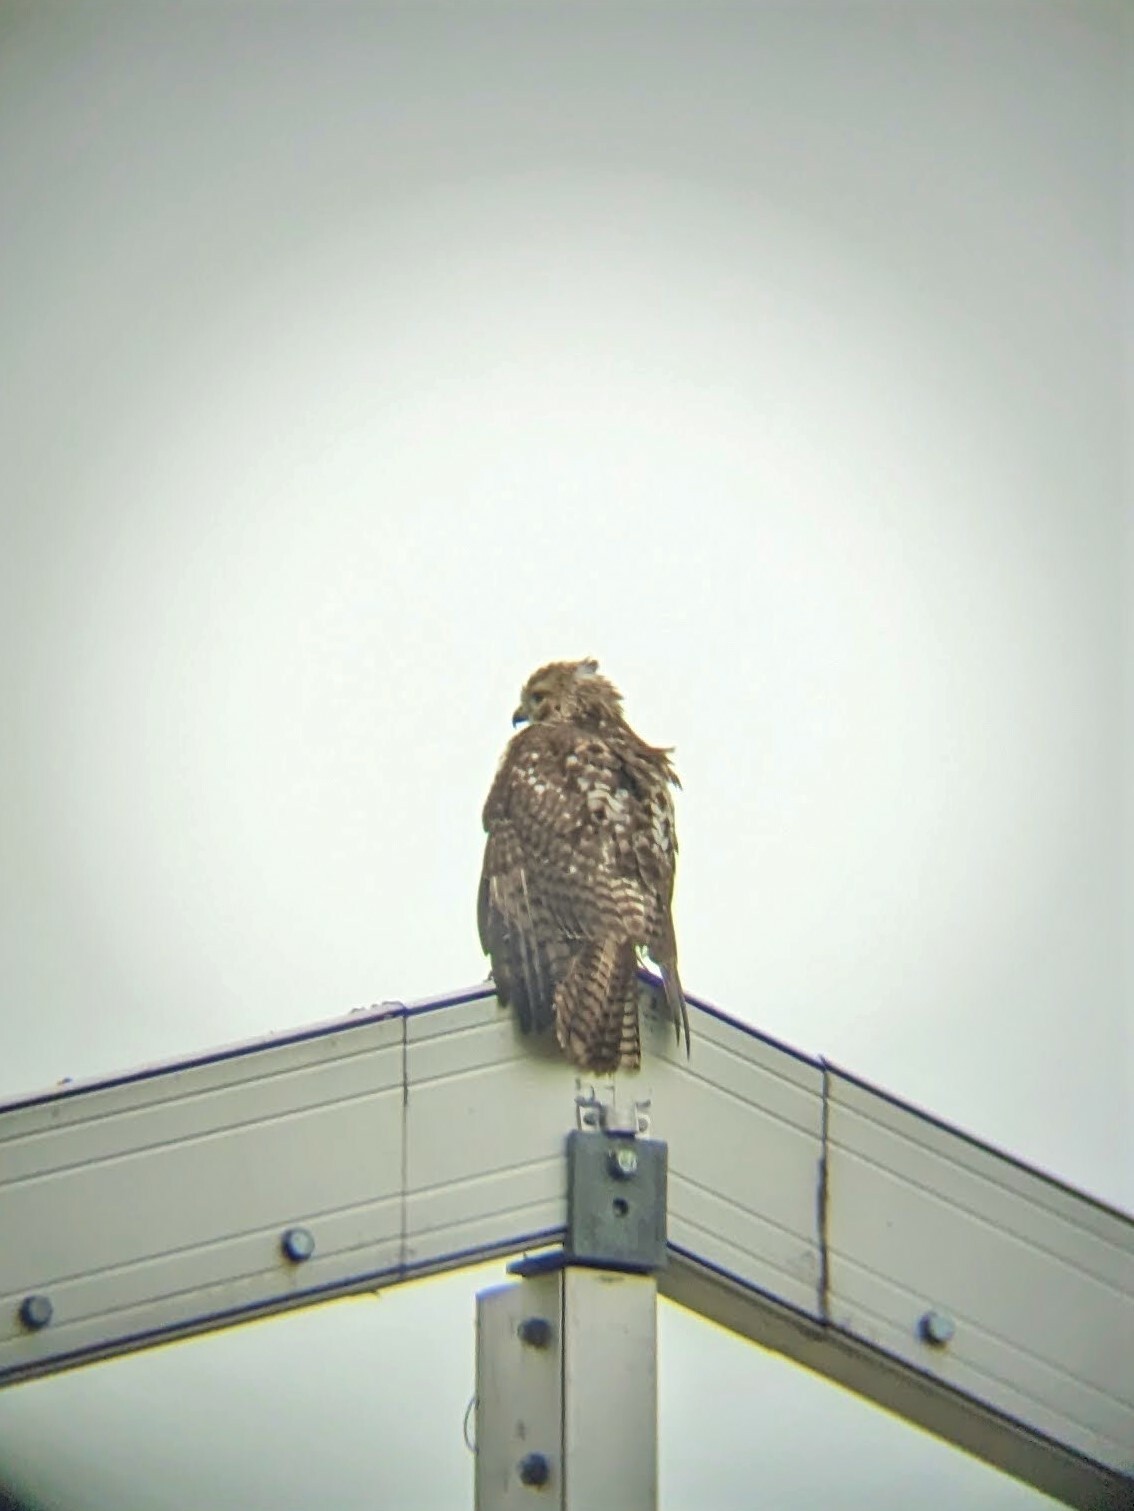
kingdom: Animalia
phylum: Chordata
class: Aves
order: Accipitriformes
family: Accipitridae
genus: Buteo
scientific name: Buteo jamaicensis
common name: Red-tailed hawk
